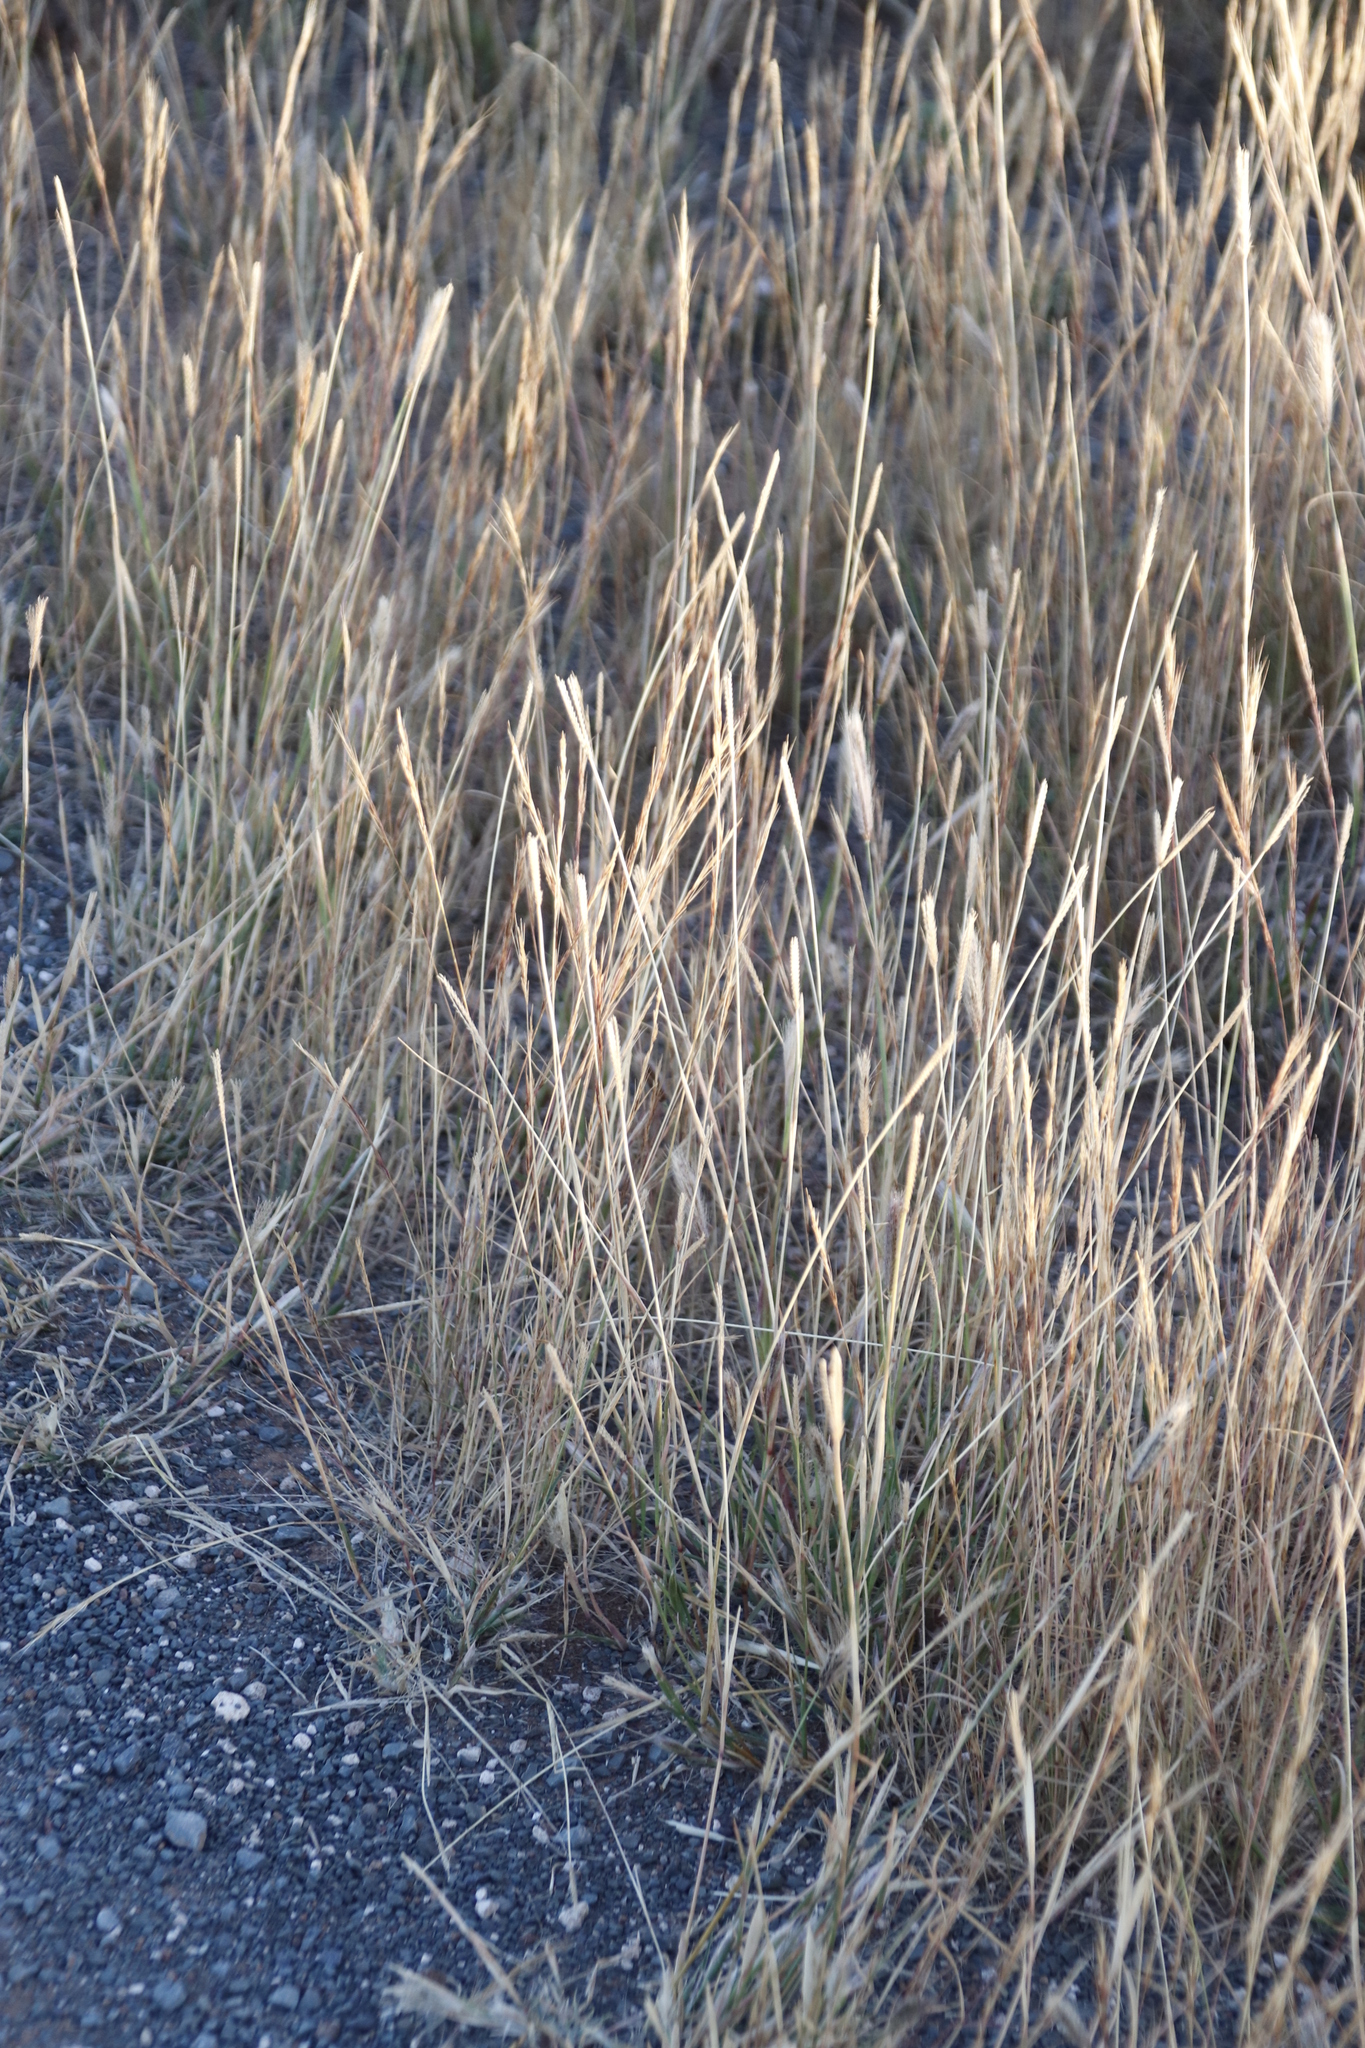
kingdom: Plantae
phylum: Tracheophyta
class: Liliopsida
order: Poales
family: Poaceae
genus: Chloris
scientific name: Chloris virgata
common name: Feathery rhodes-grass
